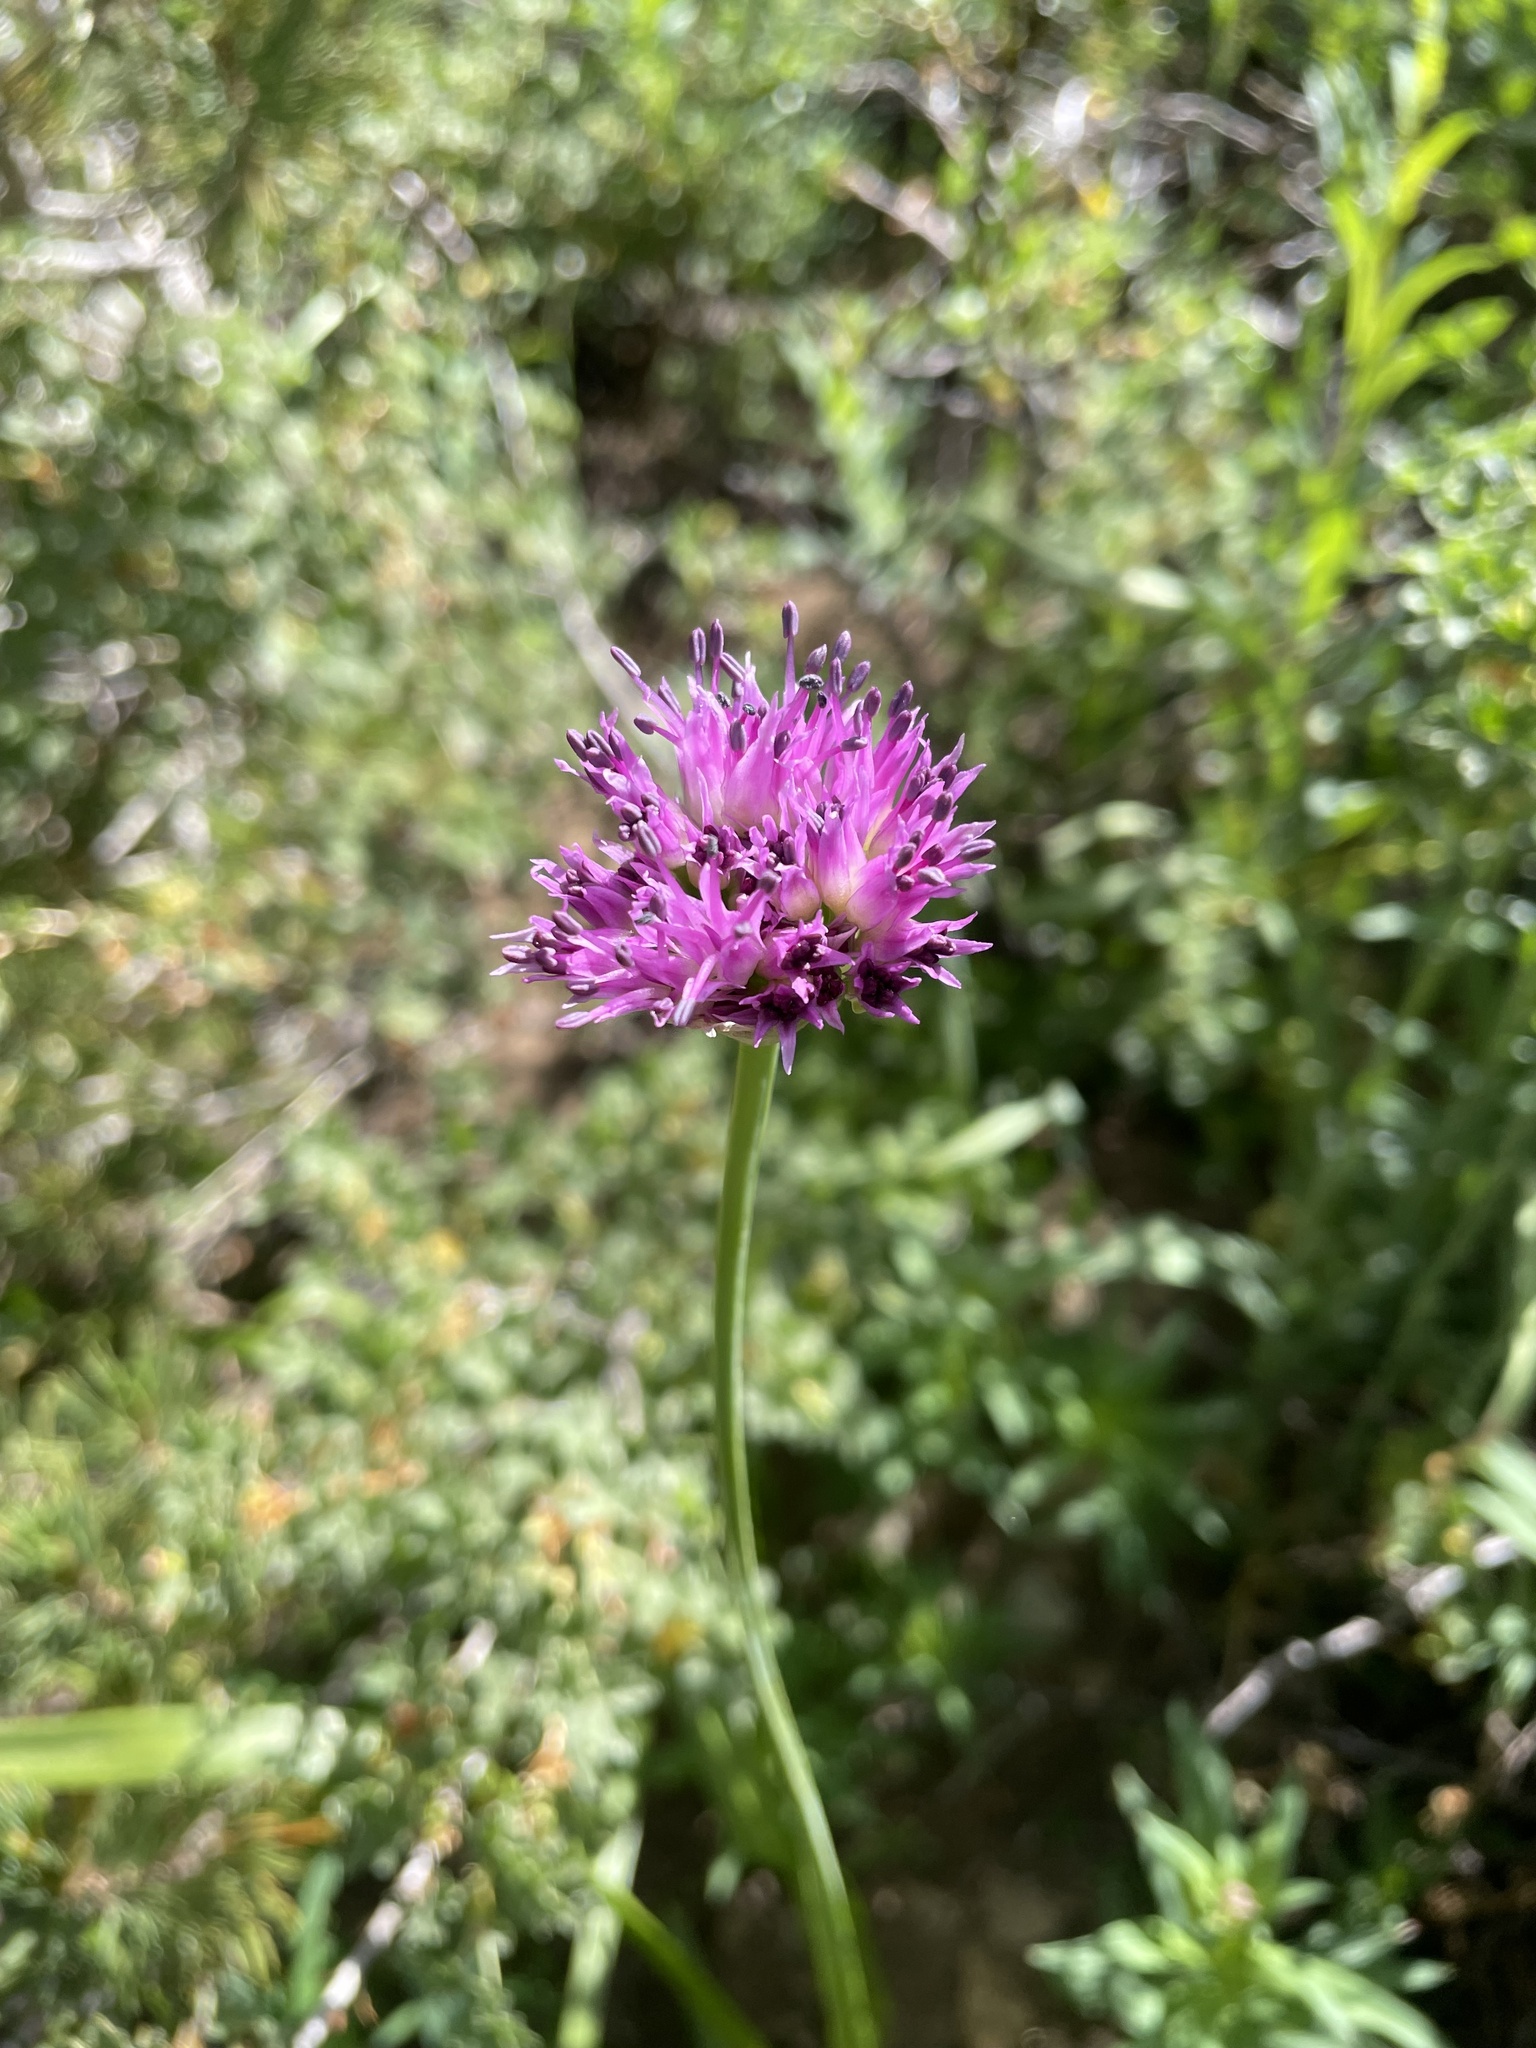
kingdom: Plantae
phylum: Tracheophyta
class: Liliopsida
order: Asparagales
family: Amaryllidaceae
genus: Allium
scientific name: Allium validum
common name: Pacific mountain onion
